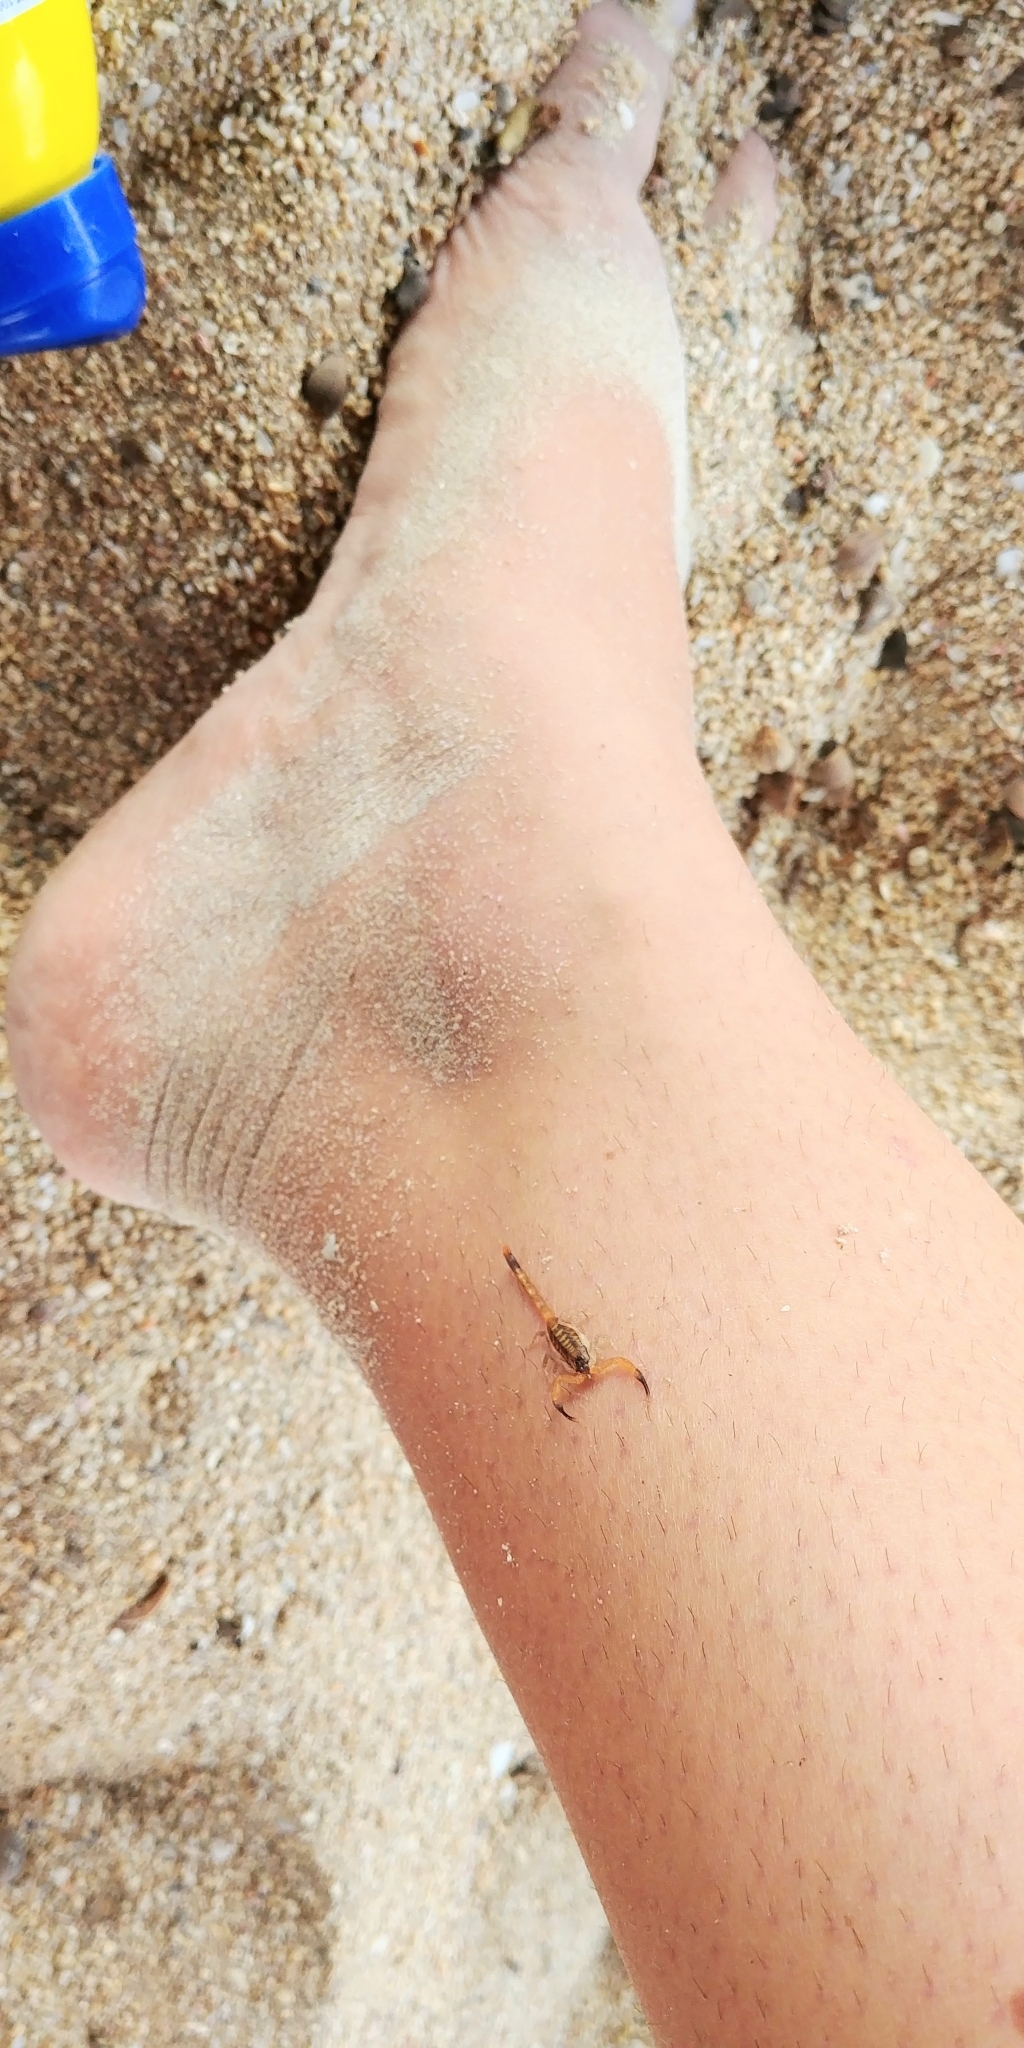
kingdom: Animalia
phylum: Arthropoda
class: Arachnida
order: Scorpiones
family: Buthidae
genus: Centruroides
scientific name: Centruroides griseus
